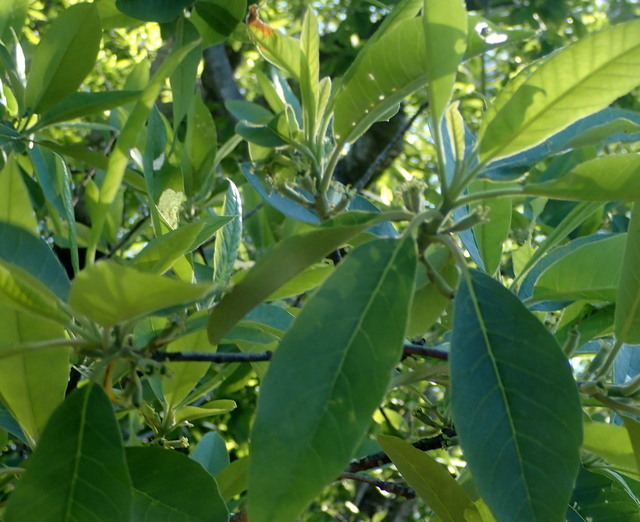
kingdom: Plantae
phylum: Tracheophyta
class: Magnoliopsida
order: Cornales
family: Nyssaceae
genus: Nyssa
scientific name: Nyssa ogeche
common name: Ogeechee tupelo
